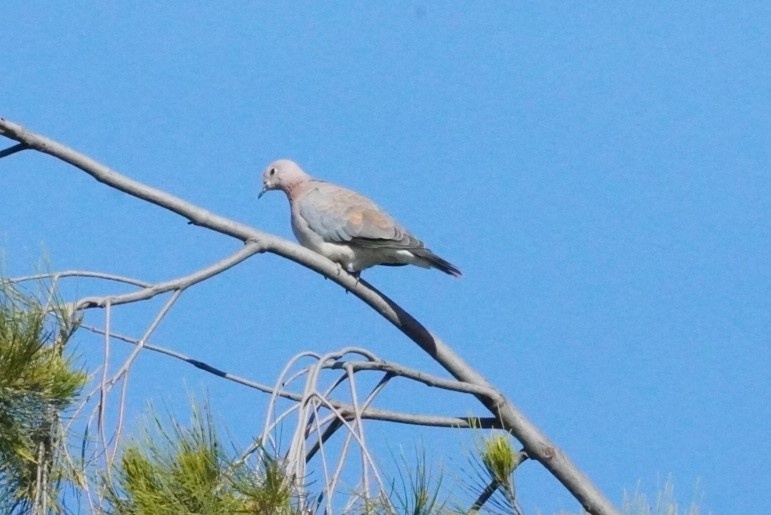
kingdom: Animalia
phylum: Chordata
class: Aves
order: Columbiformes
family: Columbidae
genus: Spilopelia
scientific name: Spilopelia senegalensis
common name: Laughing dove
